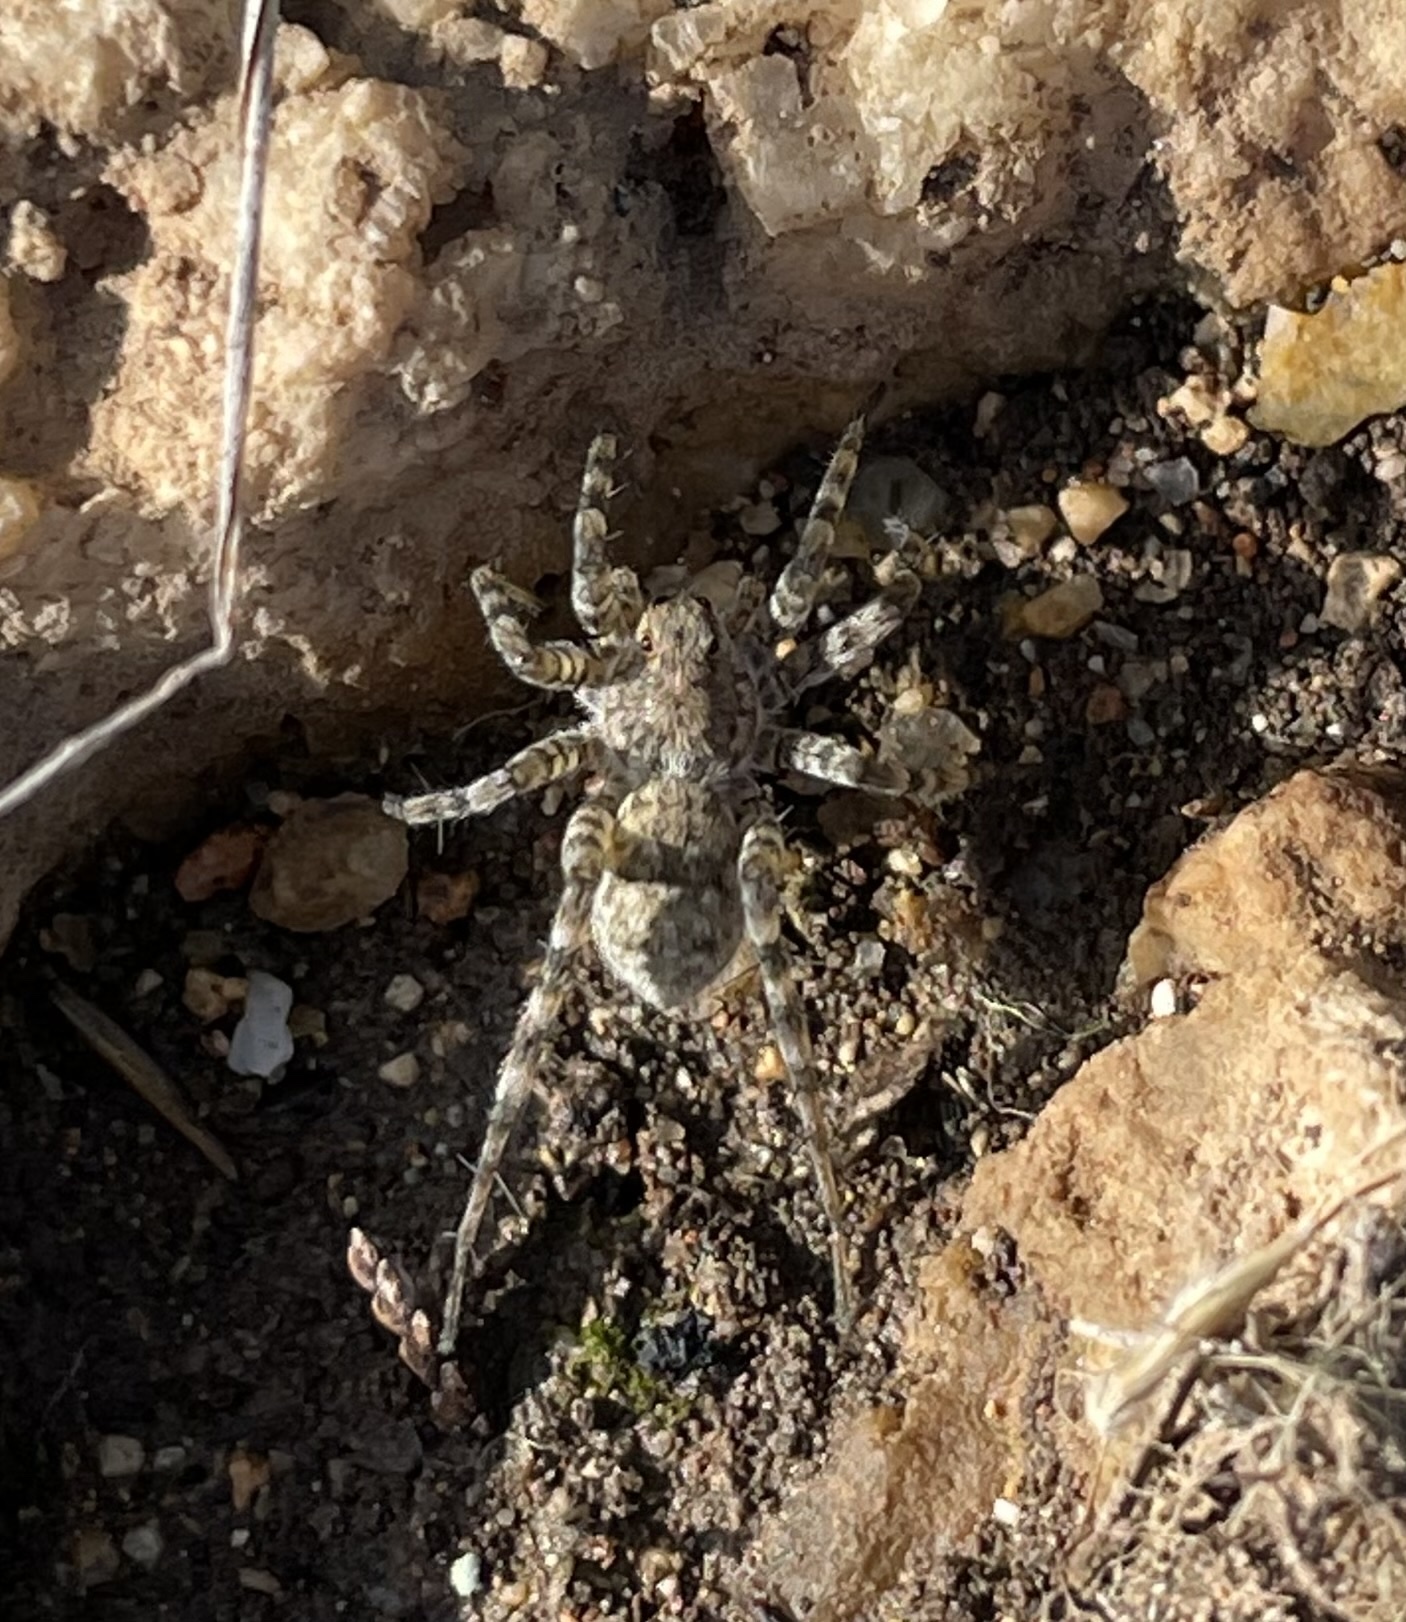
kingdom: Animalia
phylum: Arthropoda
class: Arachnida
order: Araneae
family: Lycosidae
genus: Pardosa
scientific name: Pardosa mercurialis
